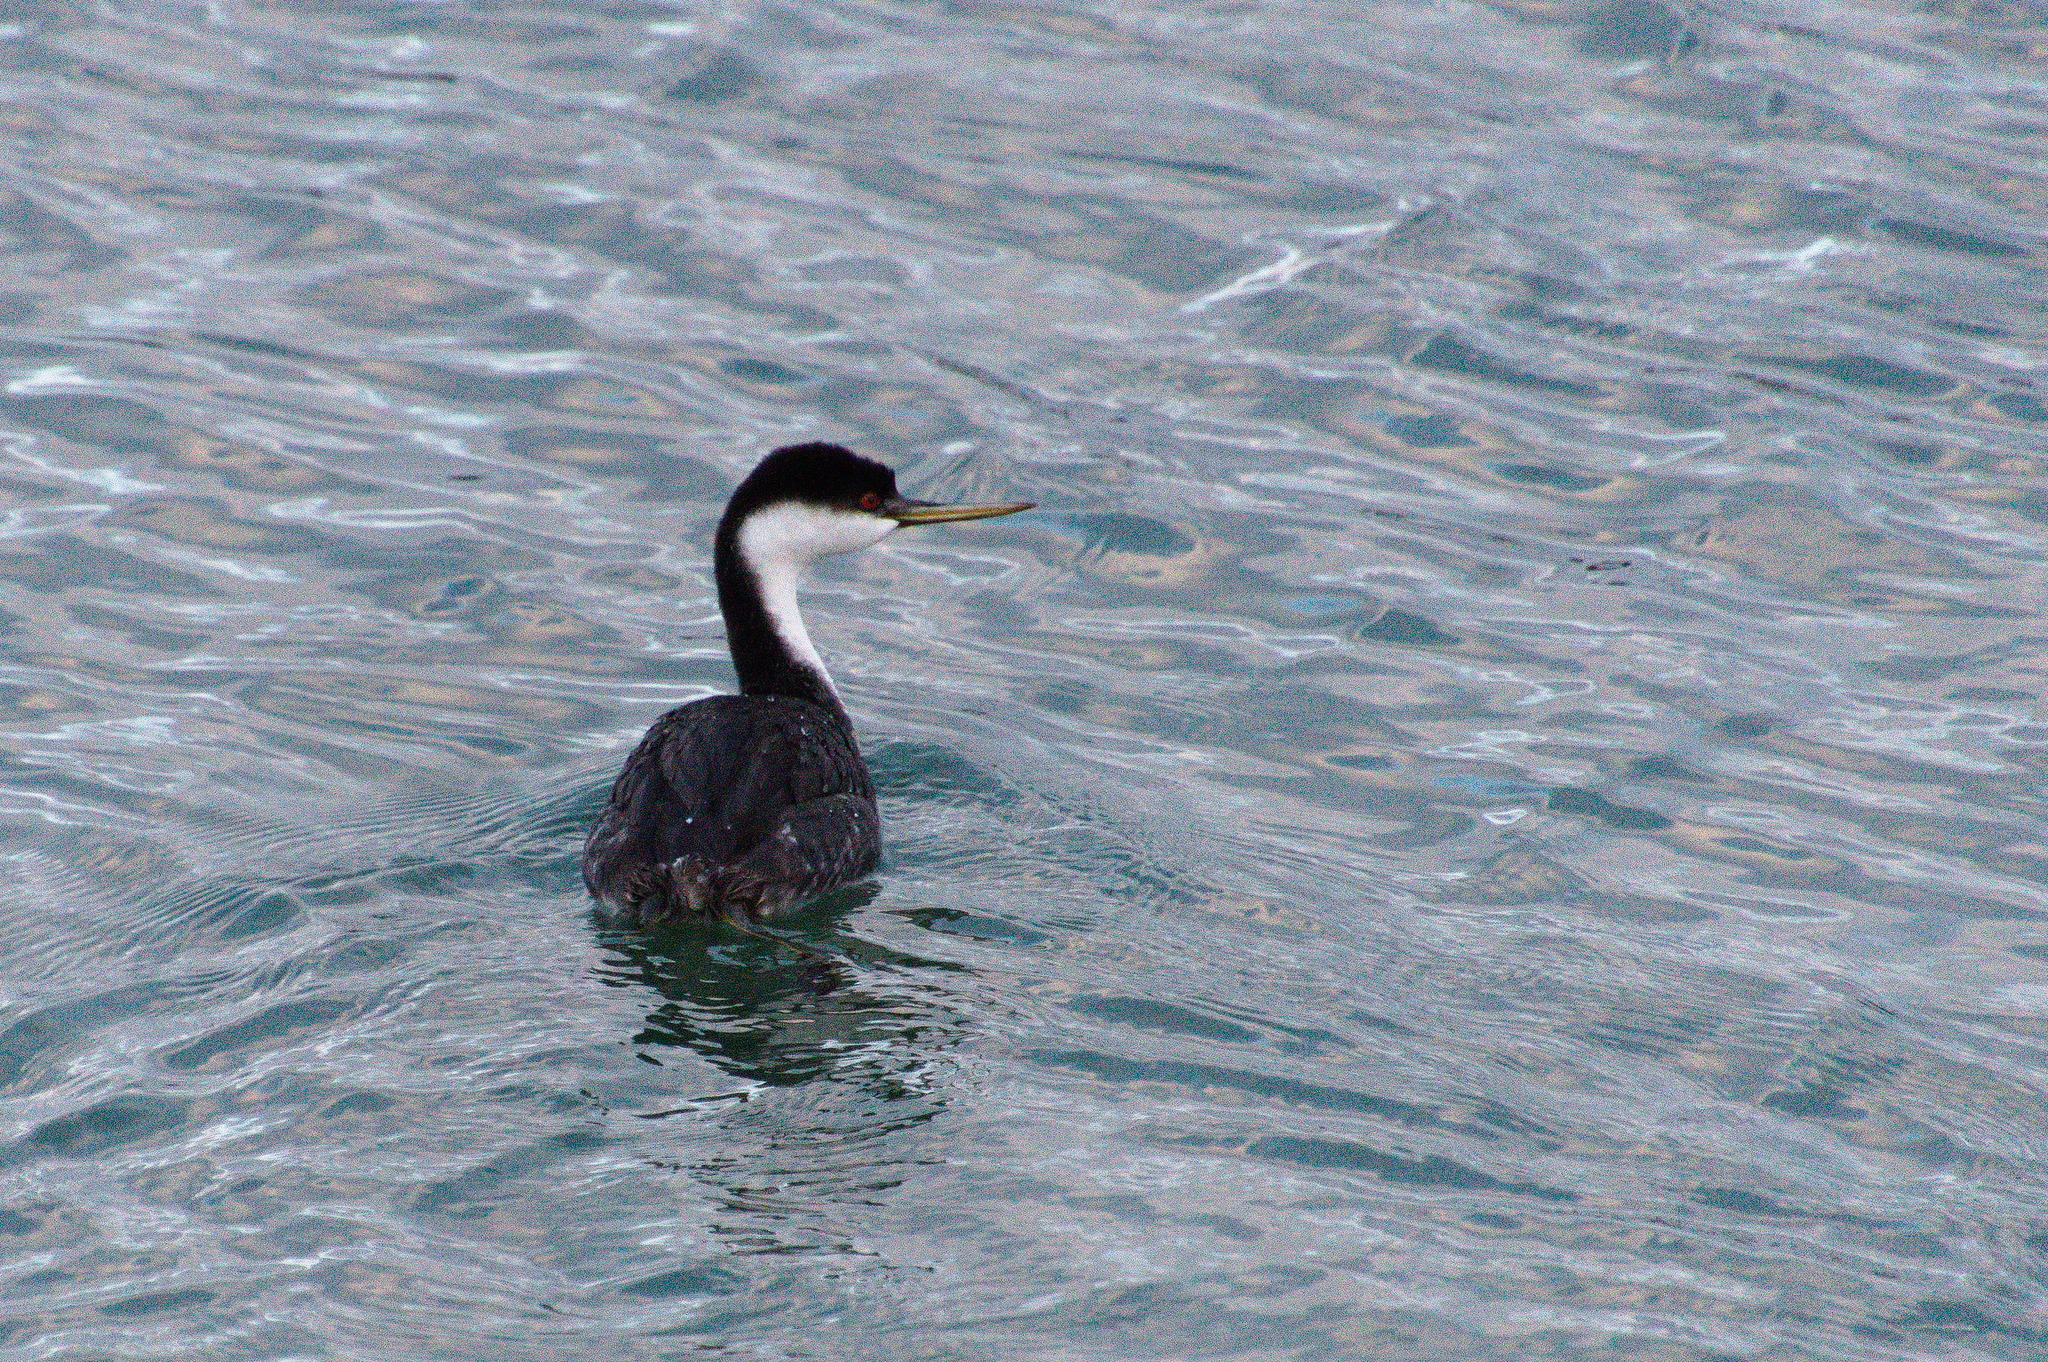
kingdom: Animalia
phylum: Chordata
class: Aves
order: Podicipediformes
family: Podicipedidae
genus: Aechmophorus
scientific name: Aechmophorus occidentalis
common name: Western grebe
